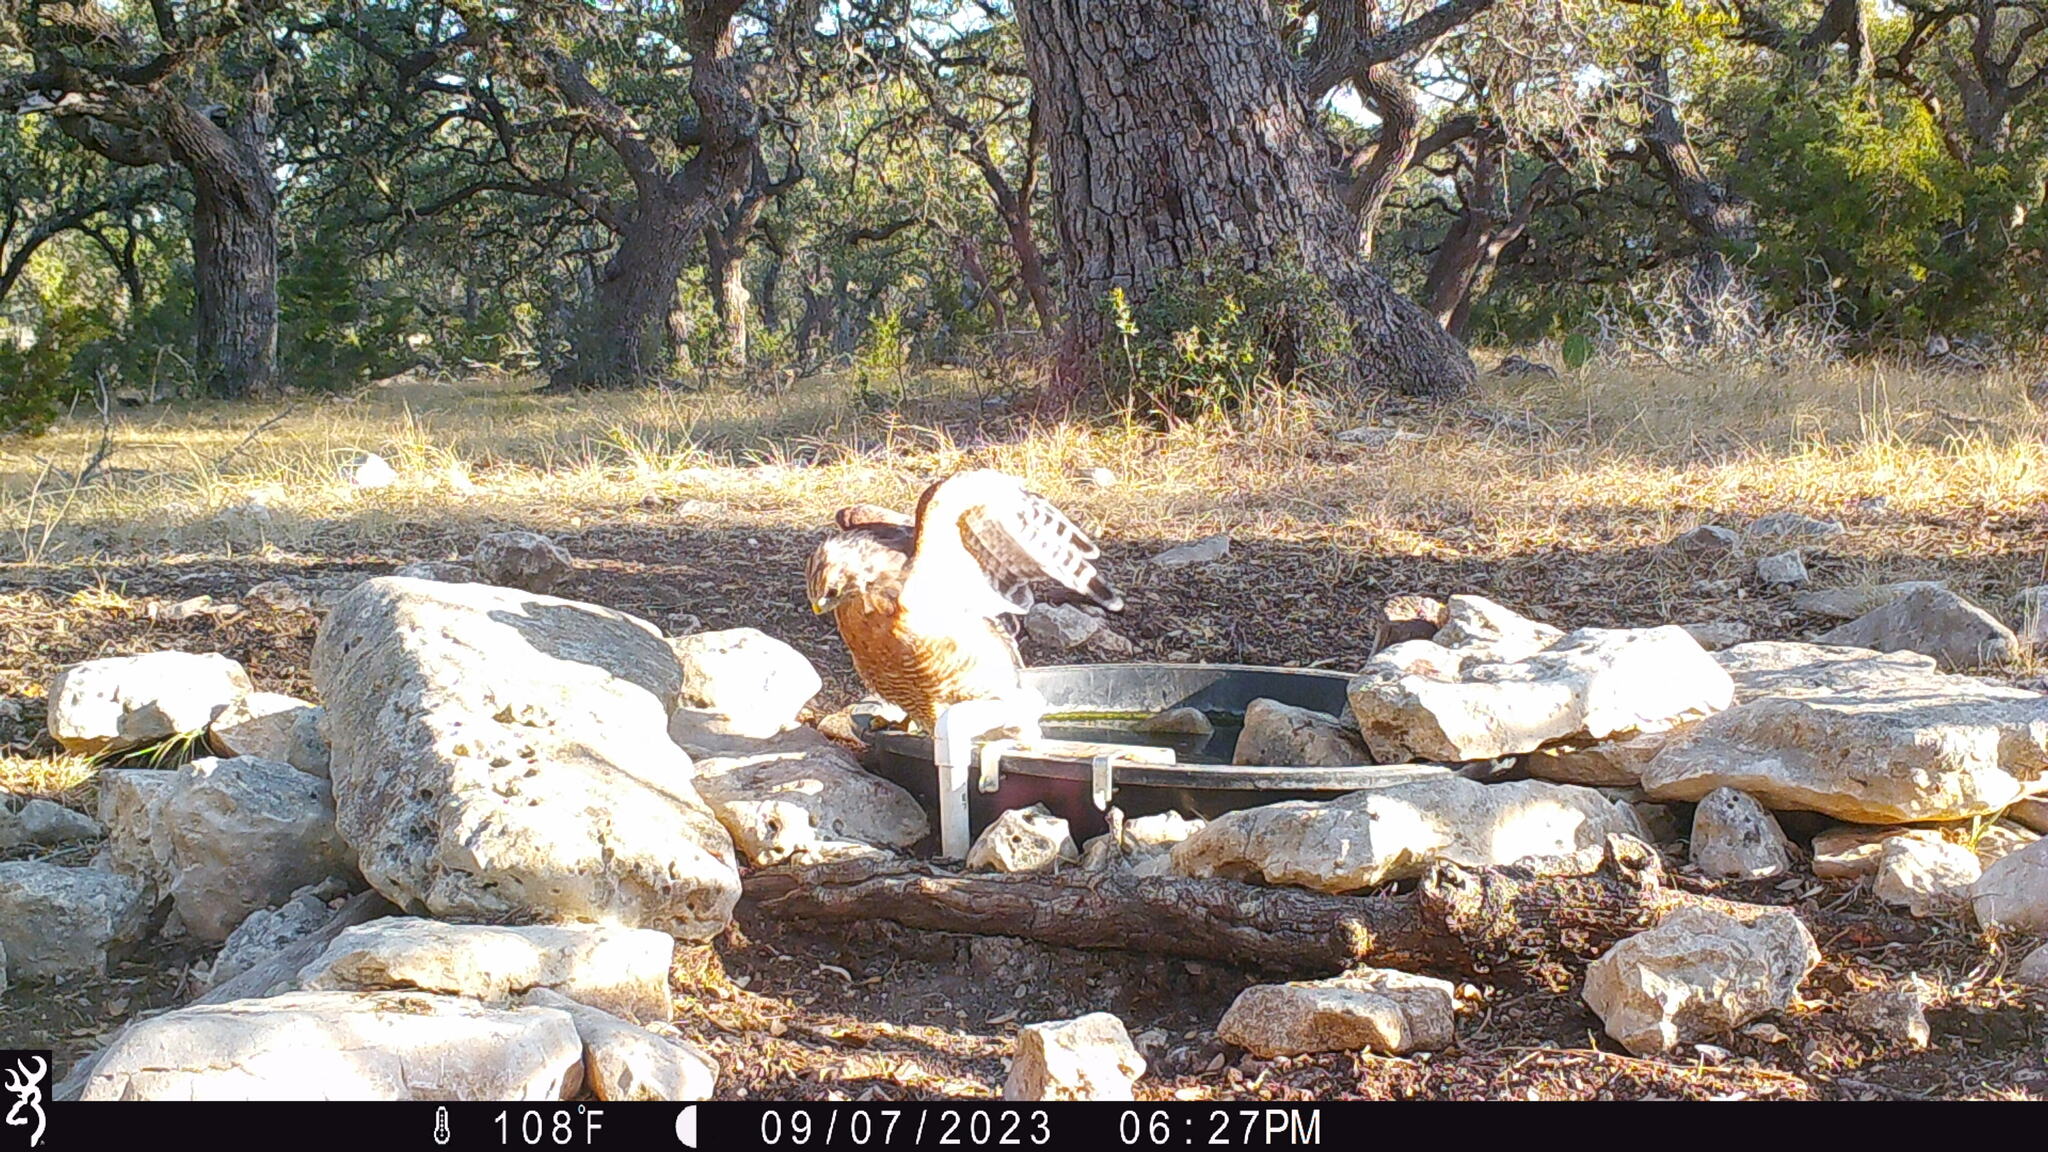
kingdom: Animalia
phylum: Chordata
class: Aves
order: Accipitriformes
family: Accipitridae
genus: Buteo
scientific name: Buteo lineatus
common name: Red-shouldered hawk
